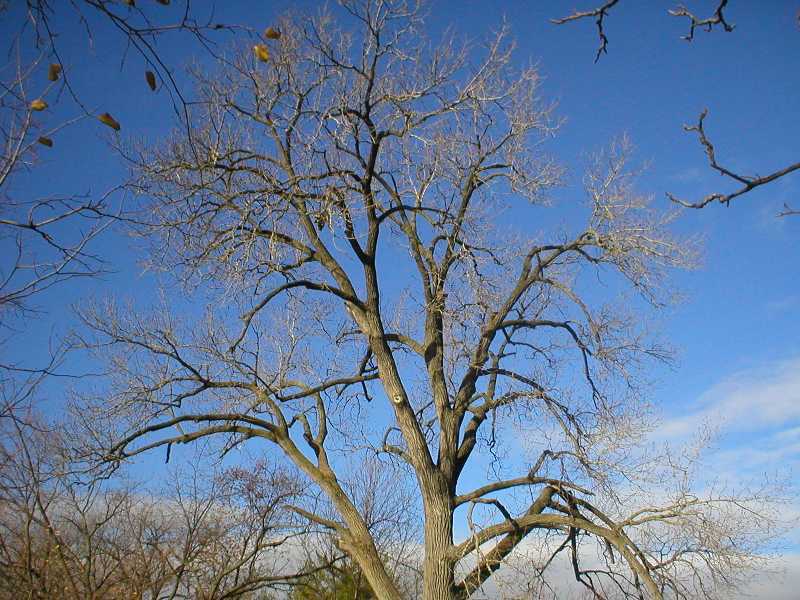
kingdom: Plantae
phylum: Tracheophyta
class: Magnoliopsida
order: Malpighiales
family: Salicaceae
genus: Populus
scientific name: Populus deltoides
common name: Eastern cottonwood
